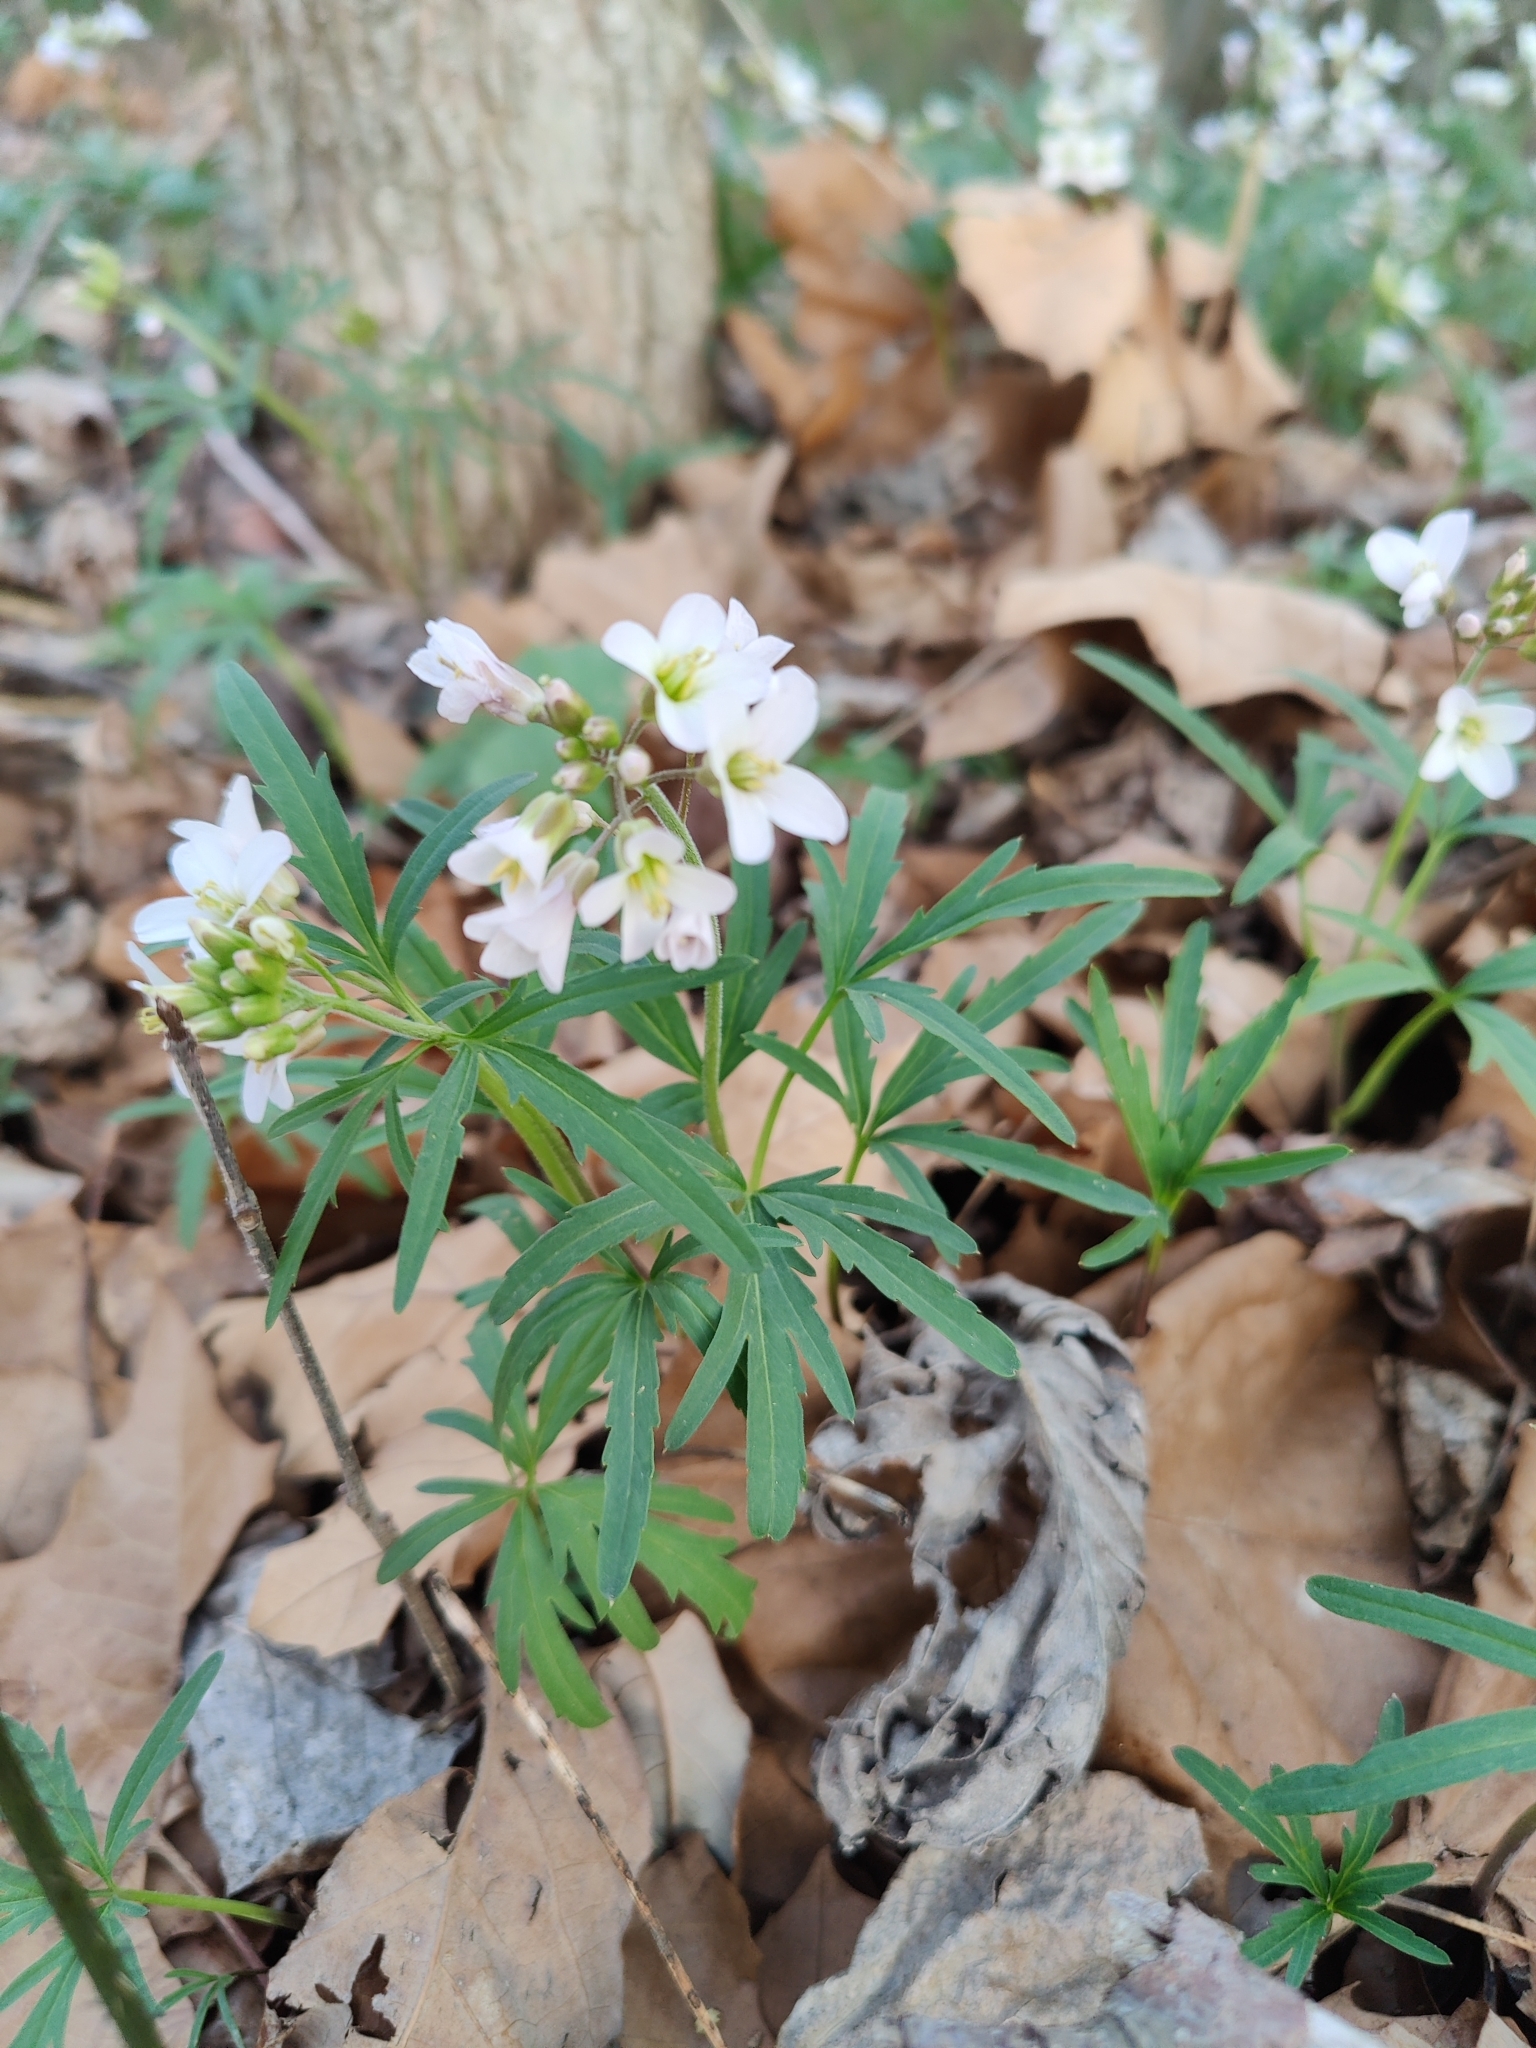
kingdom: Plantae
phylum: Tracheophyta
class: Magnoliopsida
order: Brassicales
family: Brassicaceae
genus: Cardamine
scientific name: Cardamine concatenata
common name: Cut-leaf toothcup
